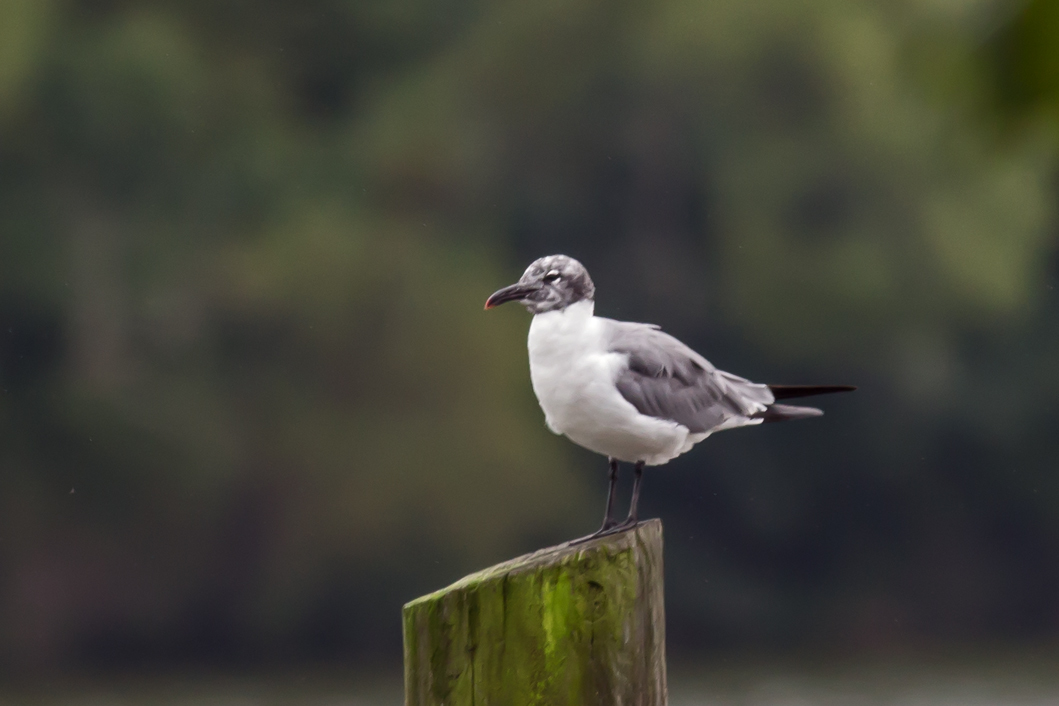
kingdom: Animalia
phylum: Chordata
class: Aves
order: Charadriiformes
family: Laridae
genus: Leucophaeus
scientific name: Leucophaeus atricilla
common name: Laughing gull
